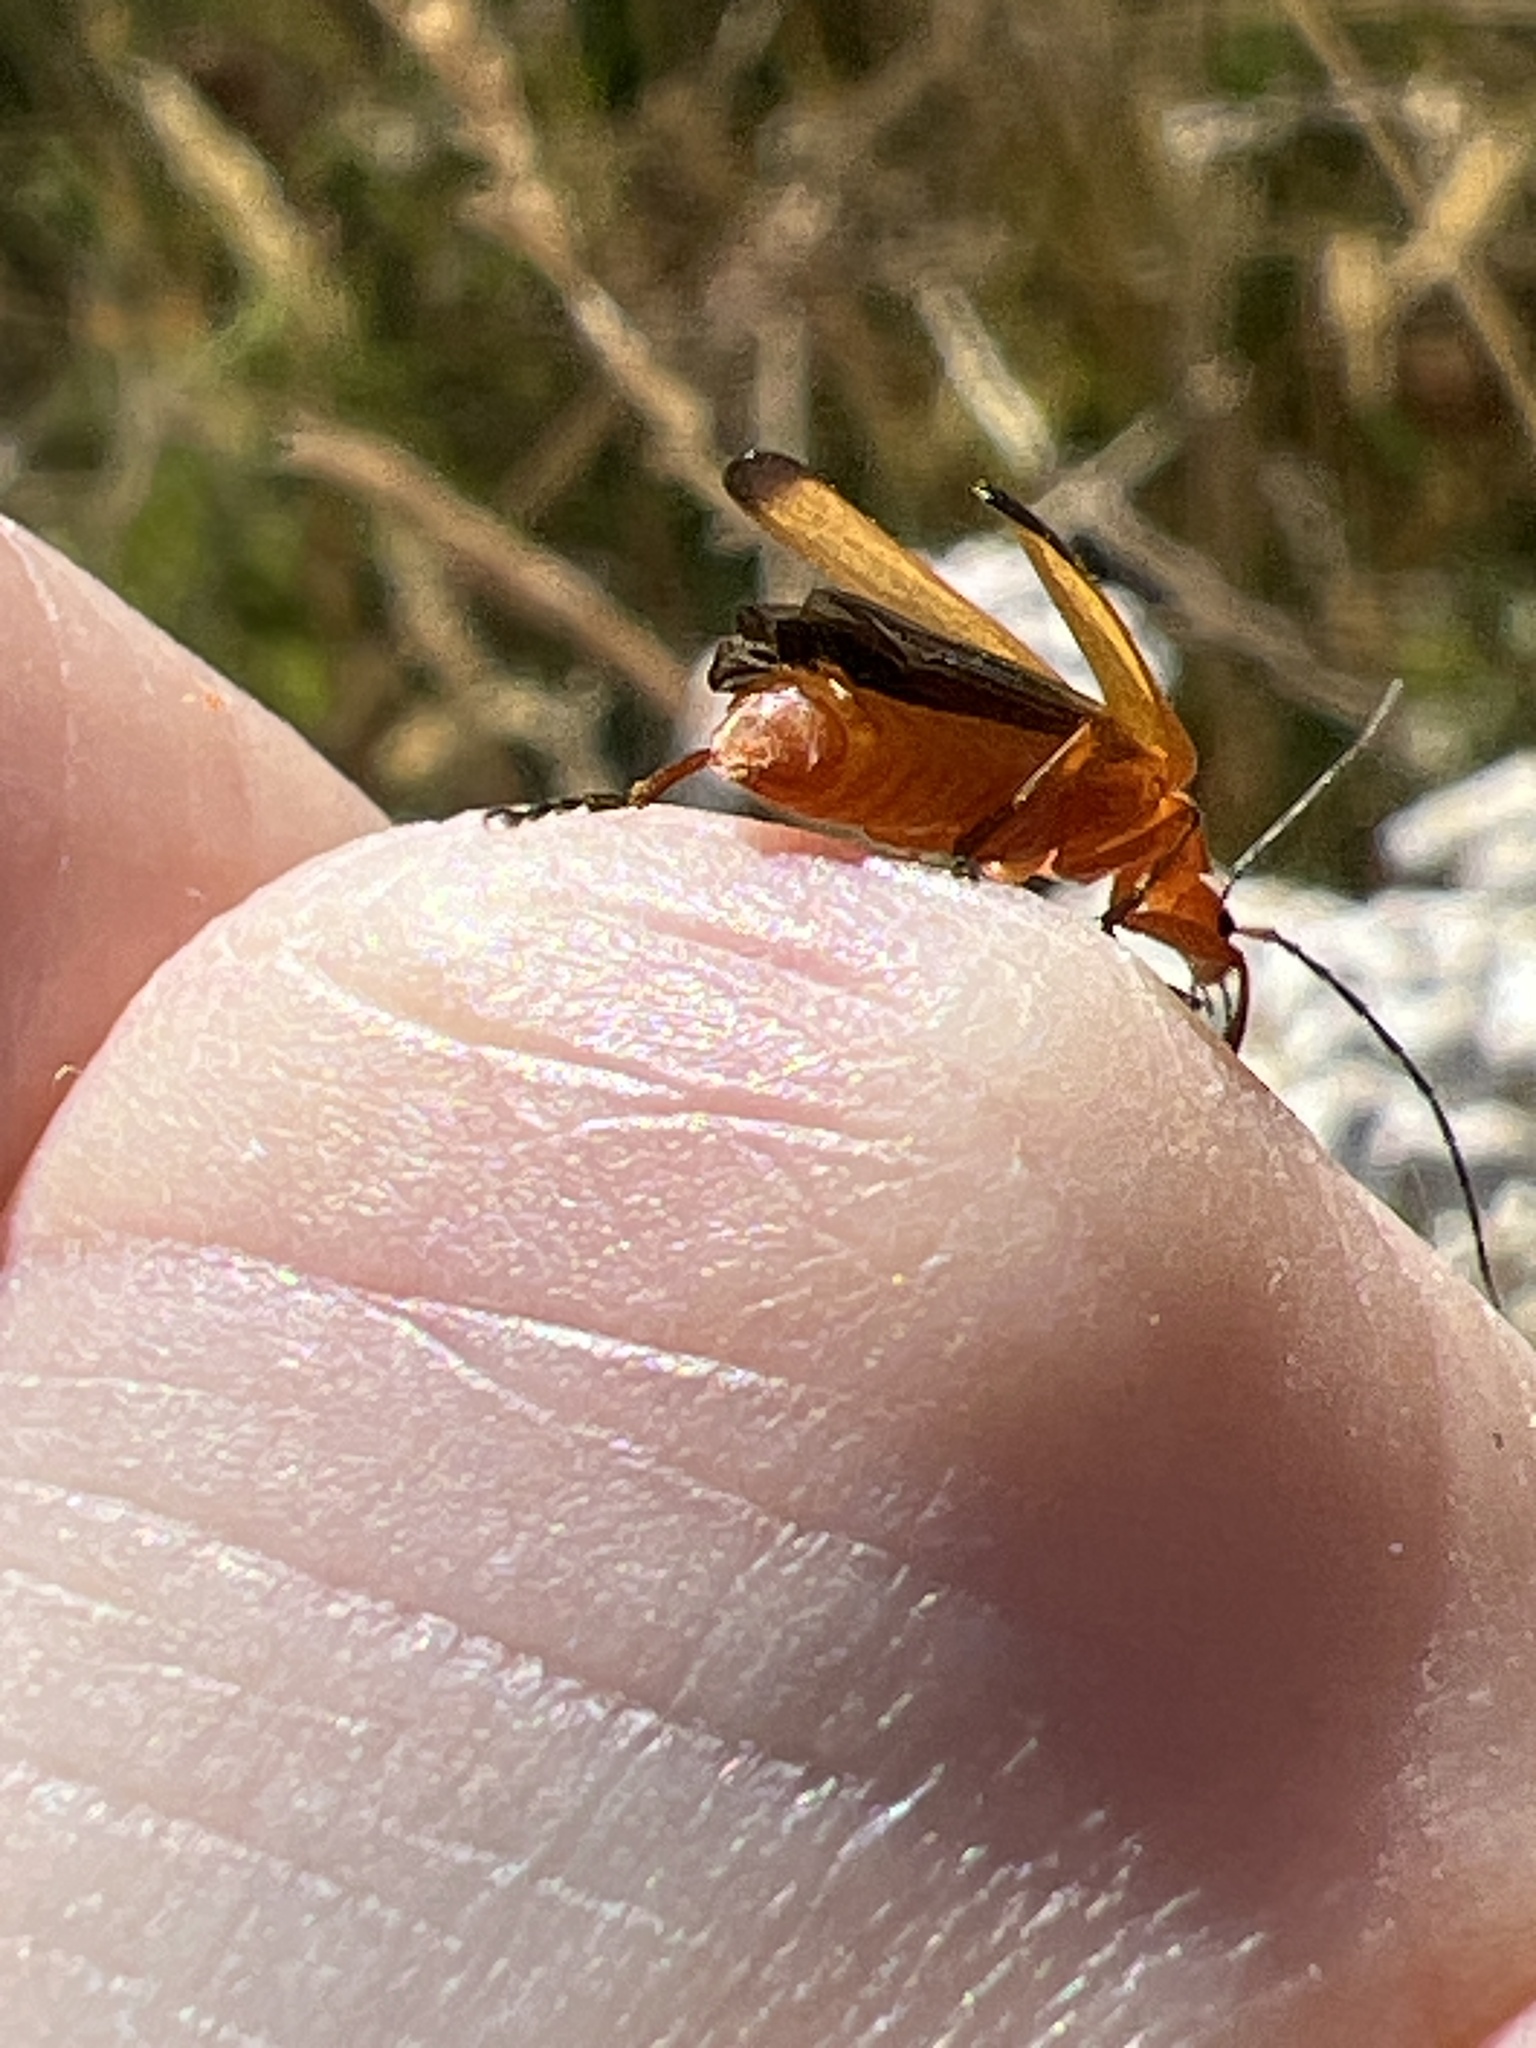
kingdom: Animalia
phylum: Arthropoda
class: Insecta
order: Coleoptera
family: Cantharidae
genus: Rhagonycha
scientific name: Rhagonycha fulva
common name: Common red soldier beetle
